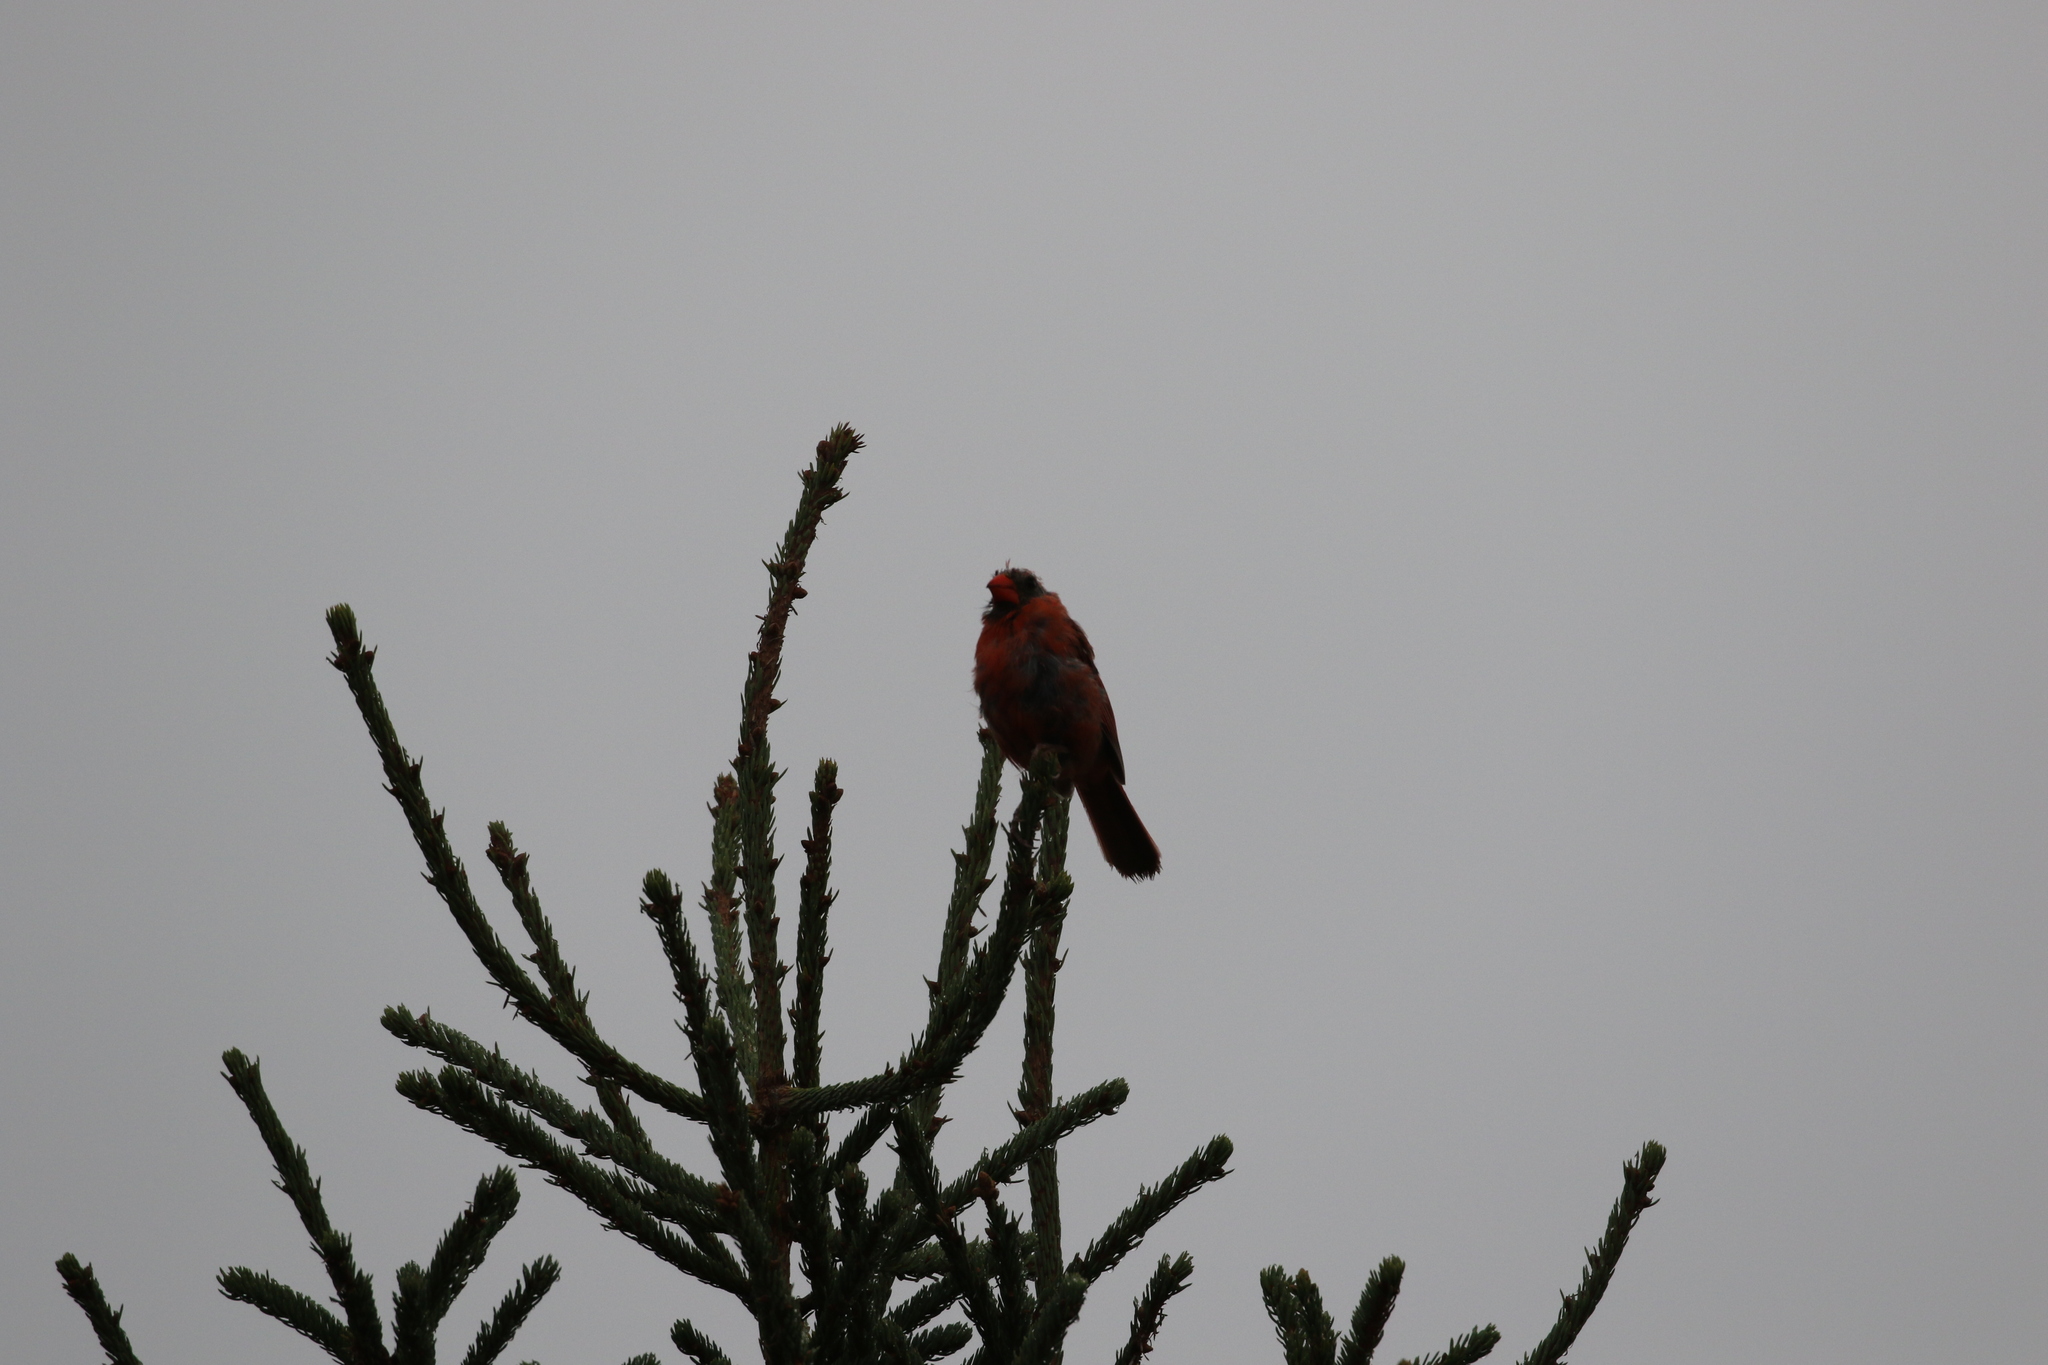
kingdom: Animalia
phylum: Chordata
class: Aves
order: Passeriformes
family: Cardinalidae
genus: Cardinalis
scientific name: Cardinalis cardinalis
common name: Northern cardinal
